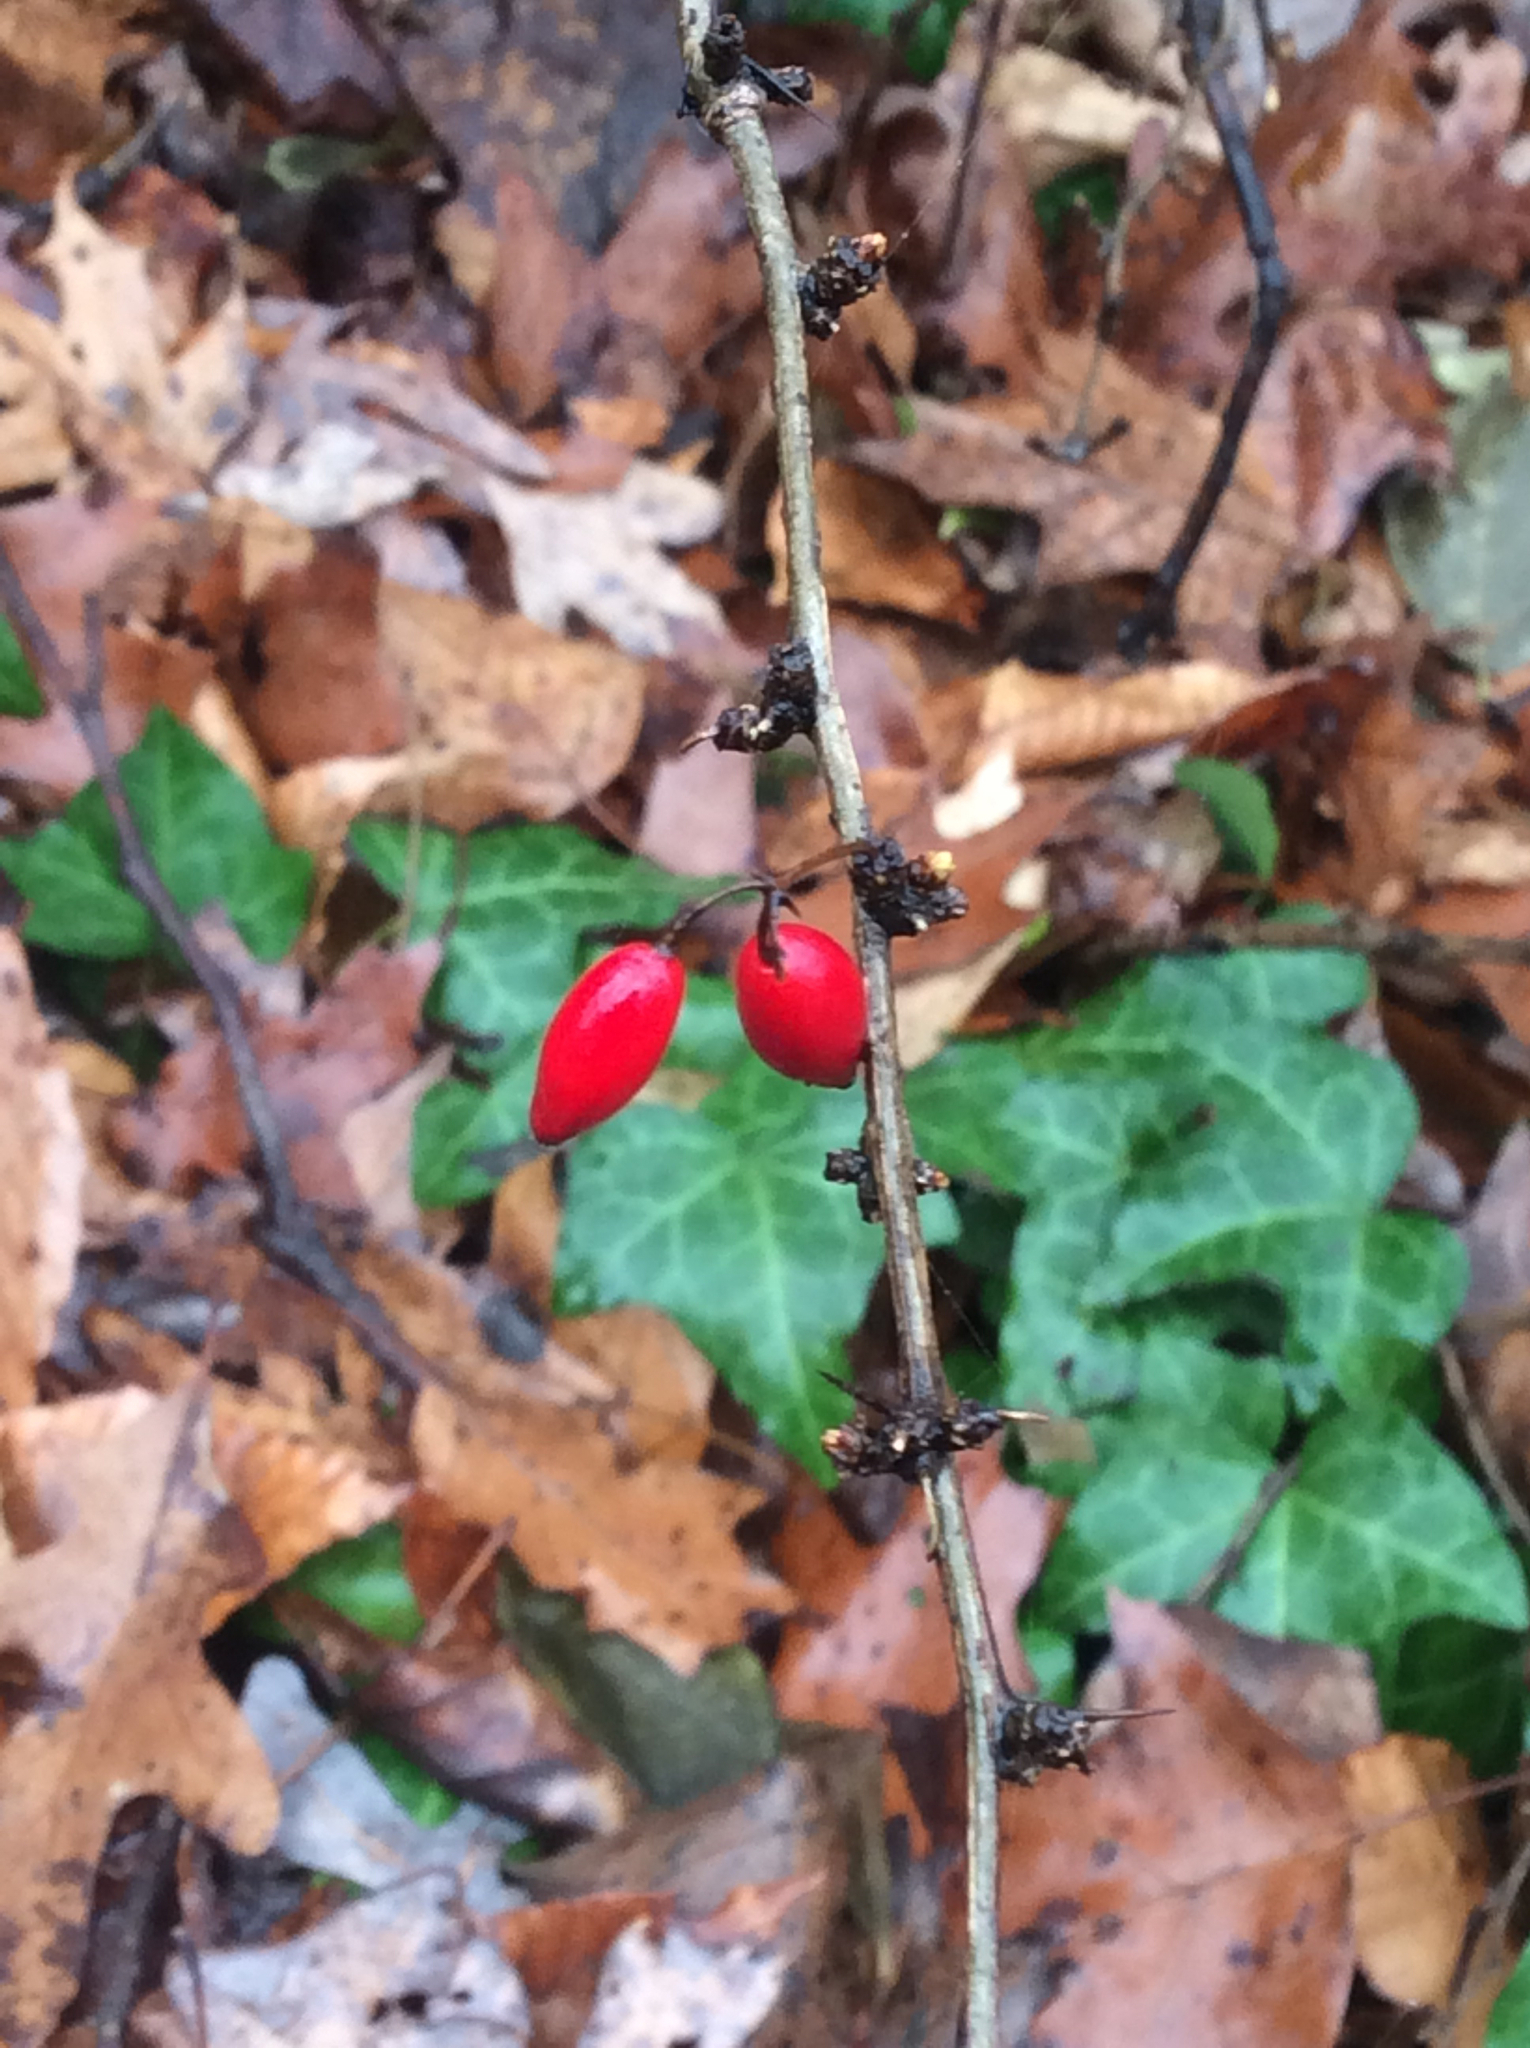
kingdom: Plantae
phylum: Tracheophyta
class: Magnoliopsida
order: Ranunculales
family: Berberidaceae
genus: Berberis
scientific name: Berberis thunbergii
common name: Japanese barberry
